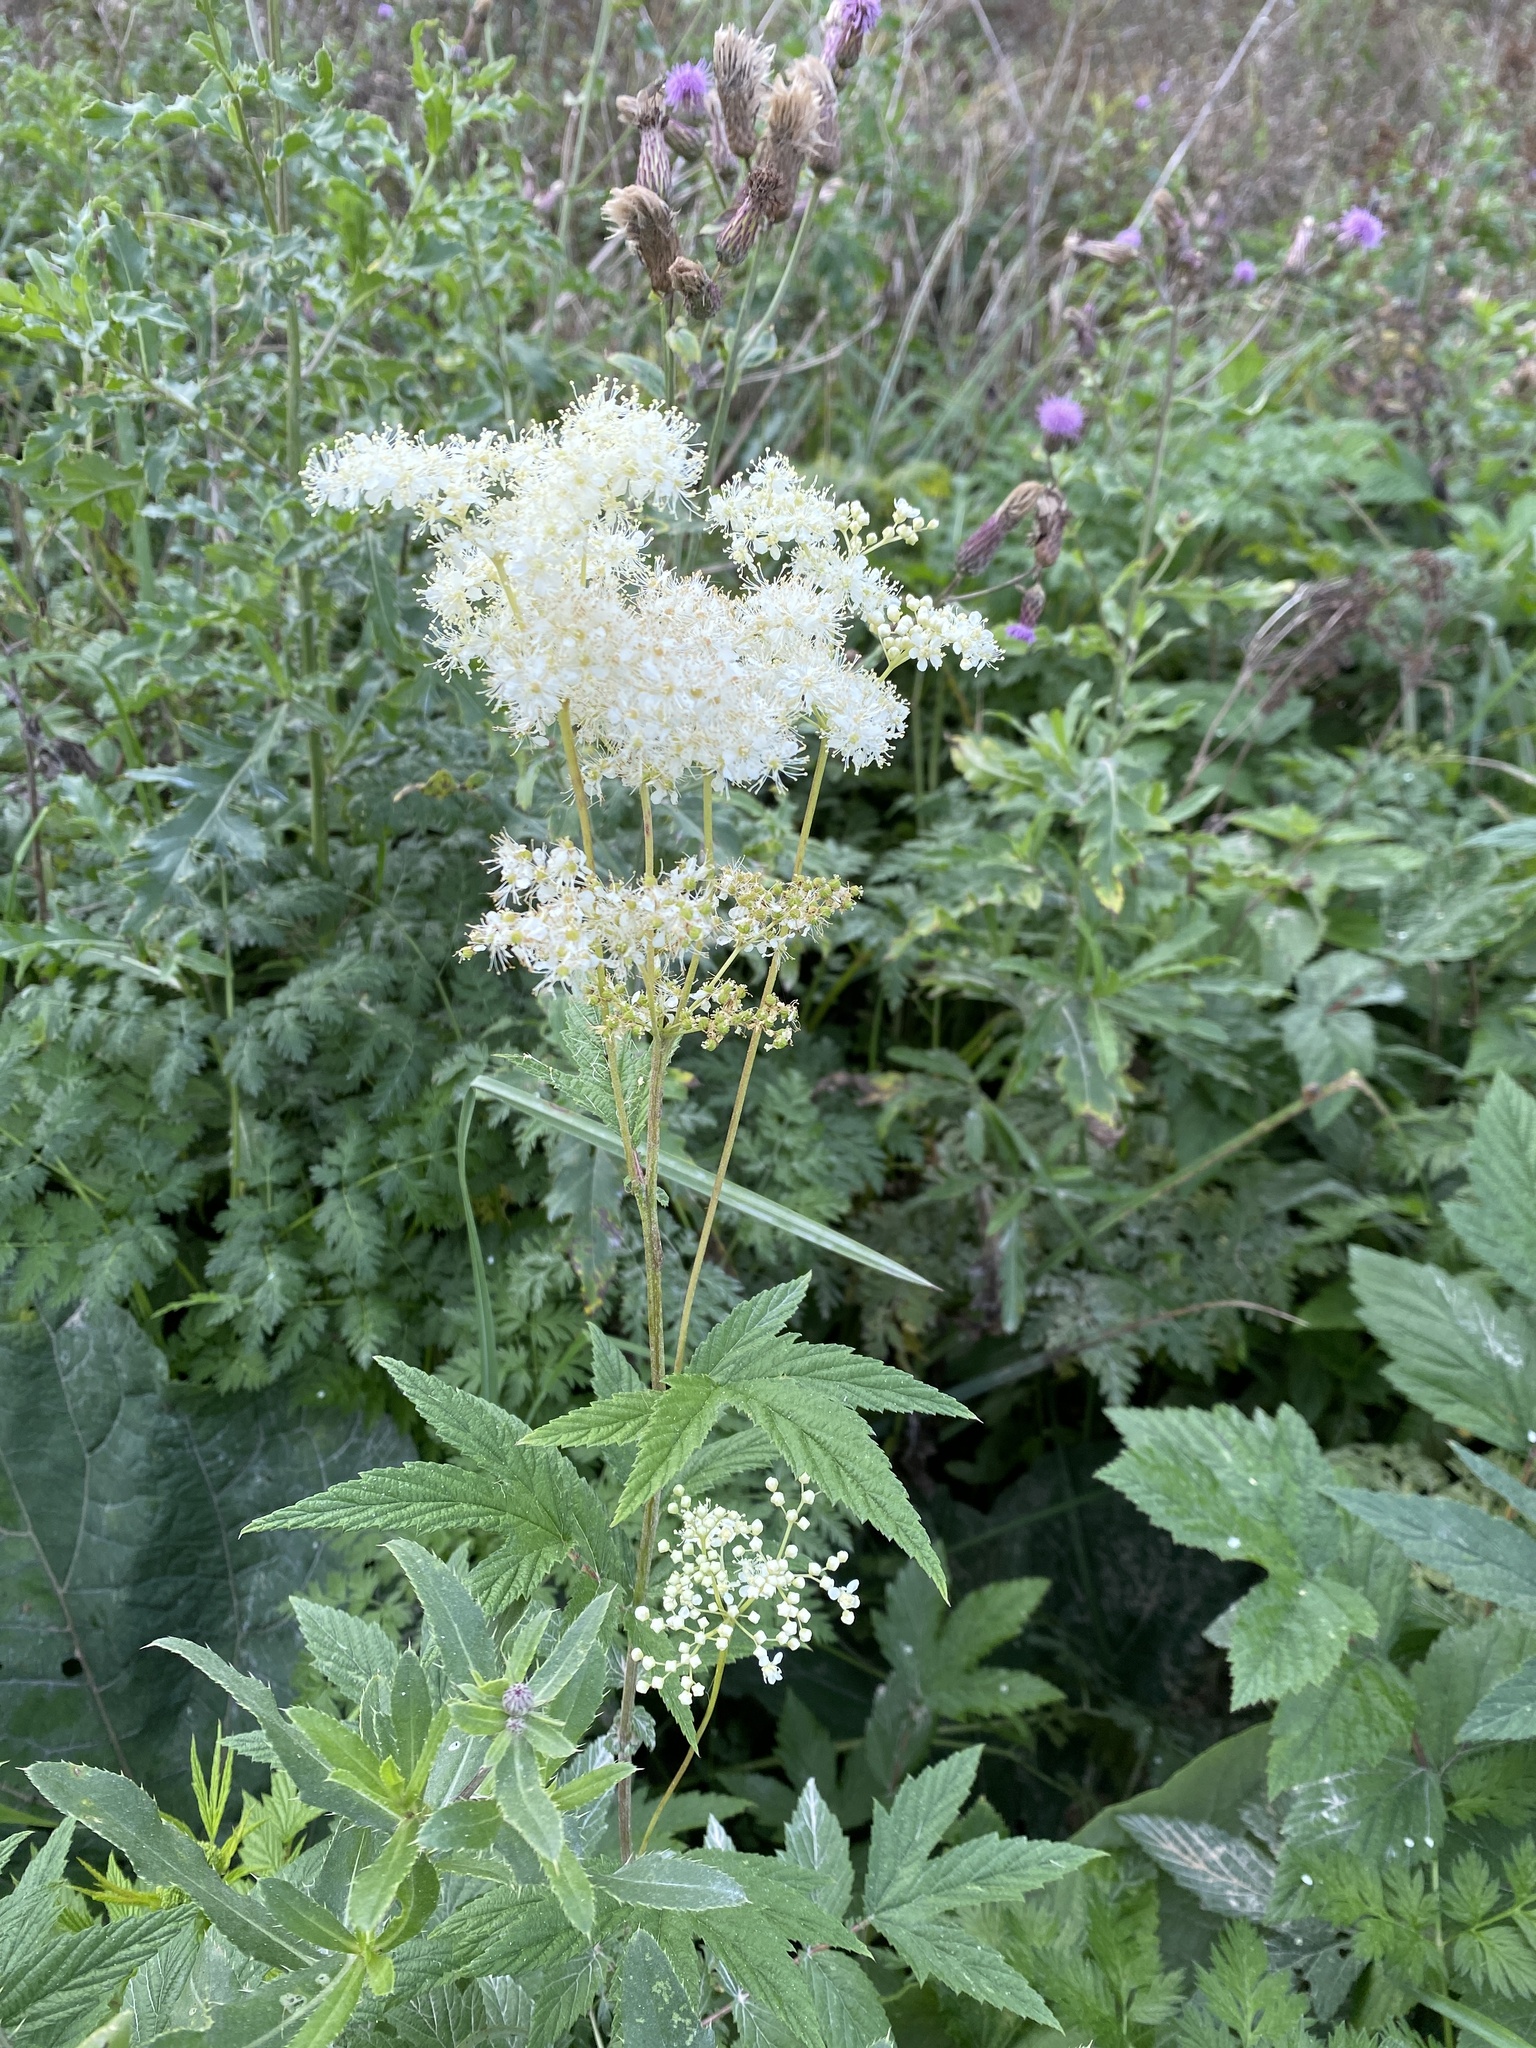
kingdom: Plantae
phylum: Tracheophyta
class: Magnoliopsida
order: Rosales
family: Rosaceae
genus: Filipendula
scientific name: Filipendula ulmaria
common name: Meadowsweet
